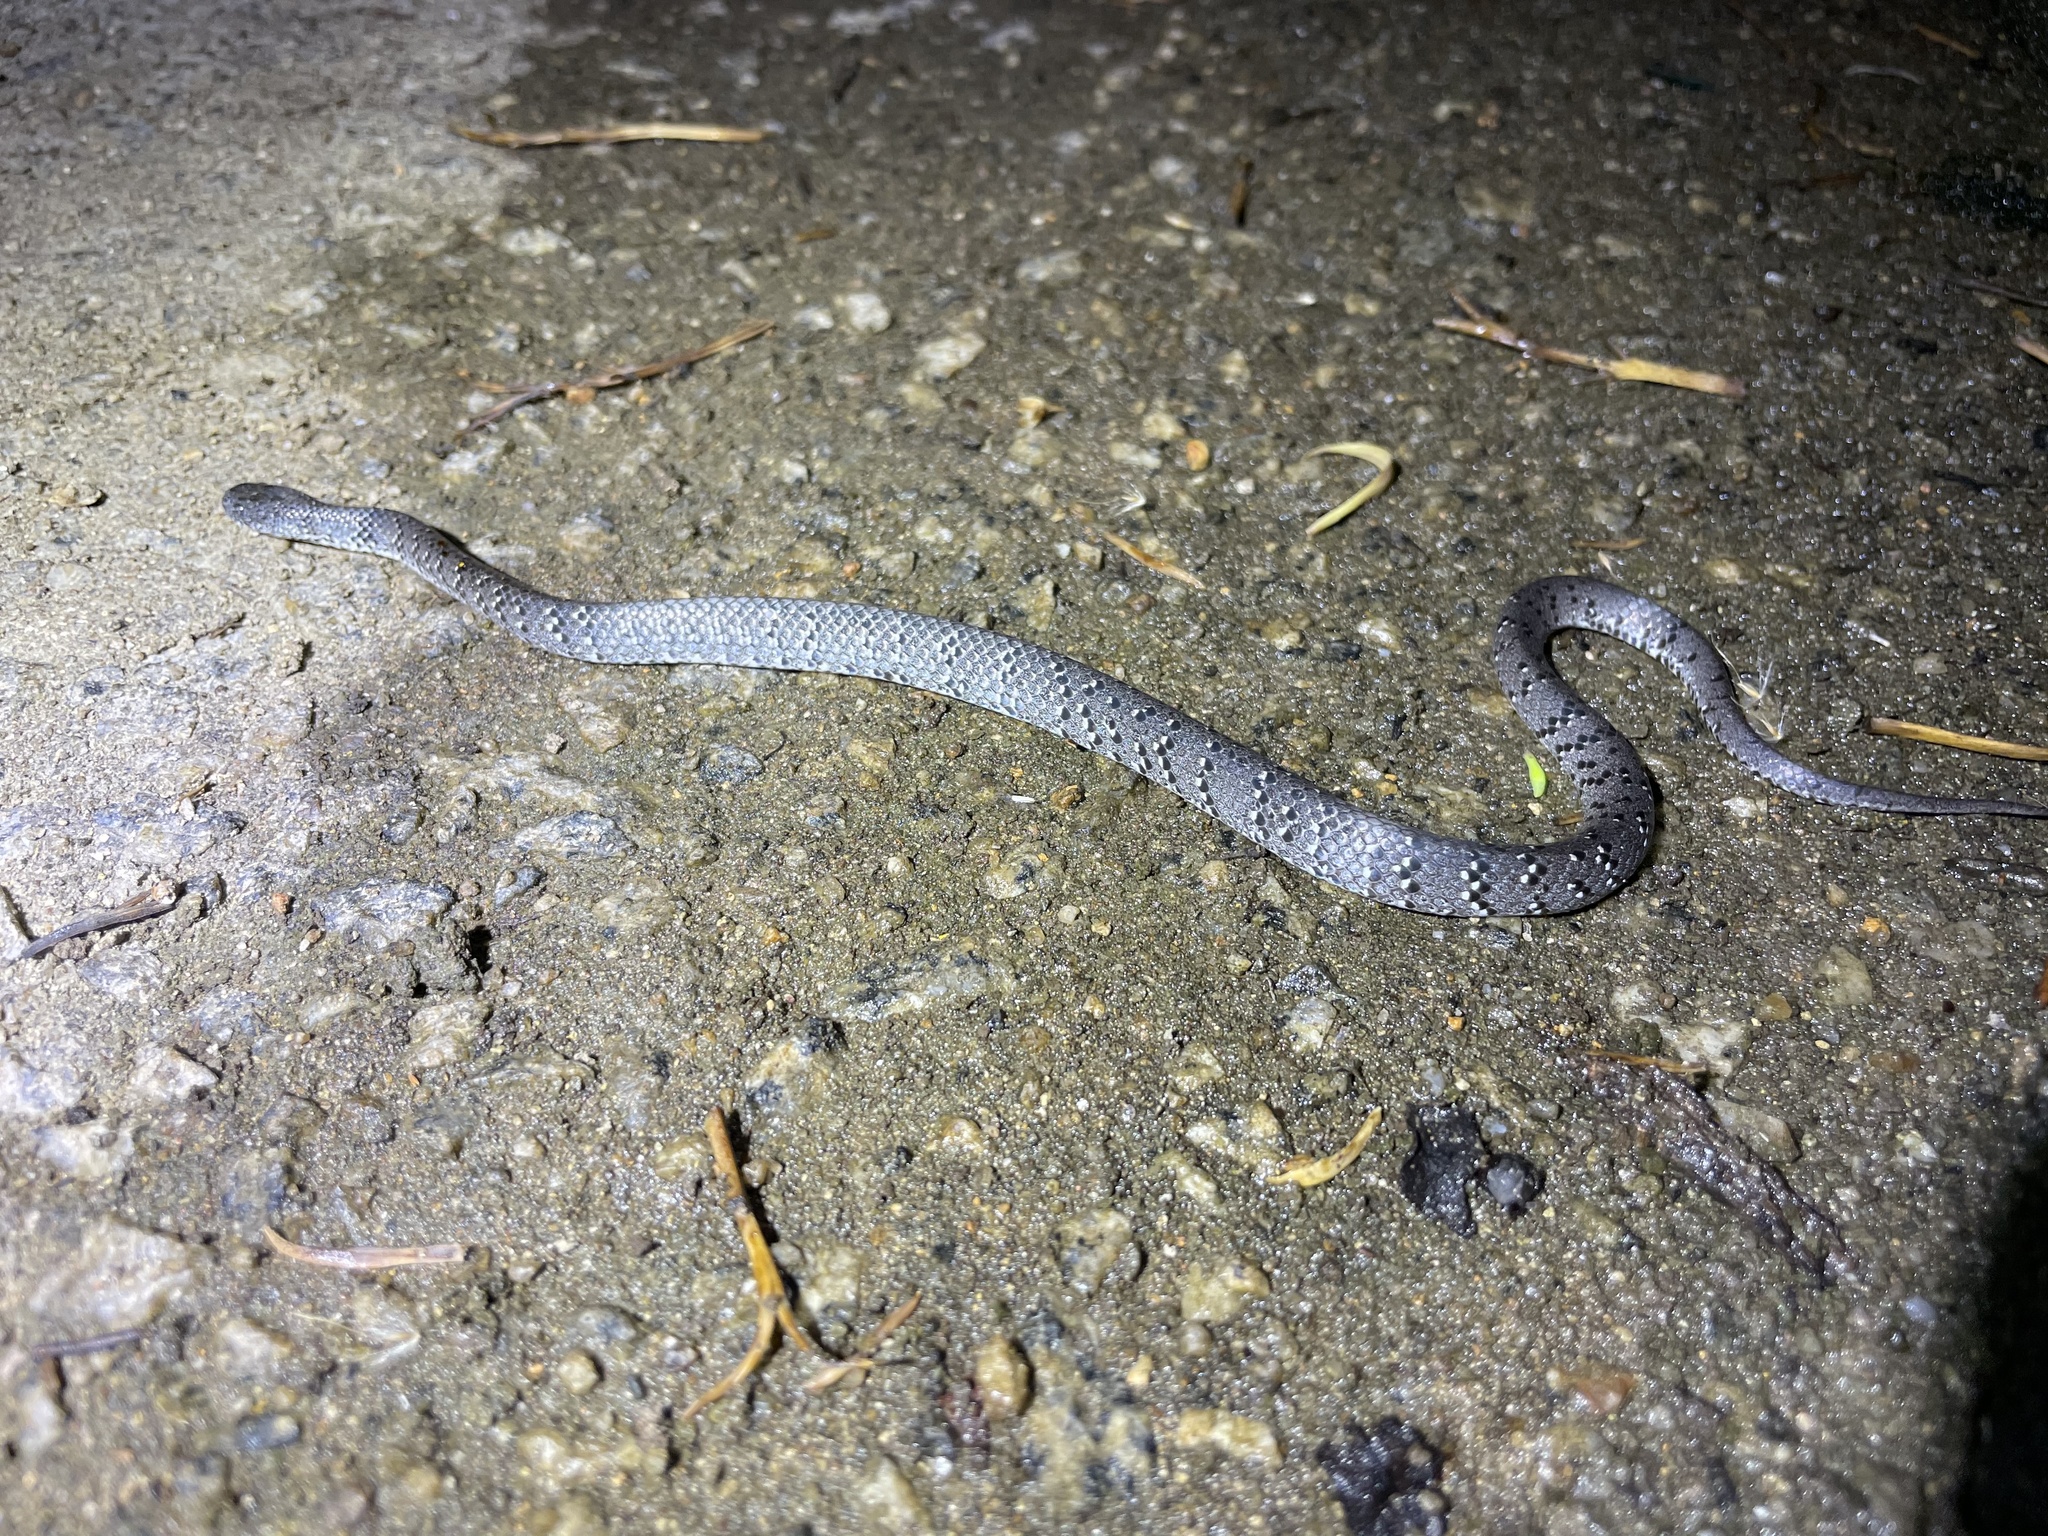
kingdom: Animalia
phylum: Chordata
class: Squamata
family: Pareidae
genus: Pareas
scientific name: Pareas margaritophorus
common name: Mountain slug snake
